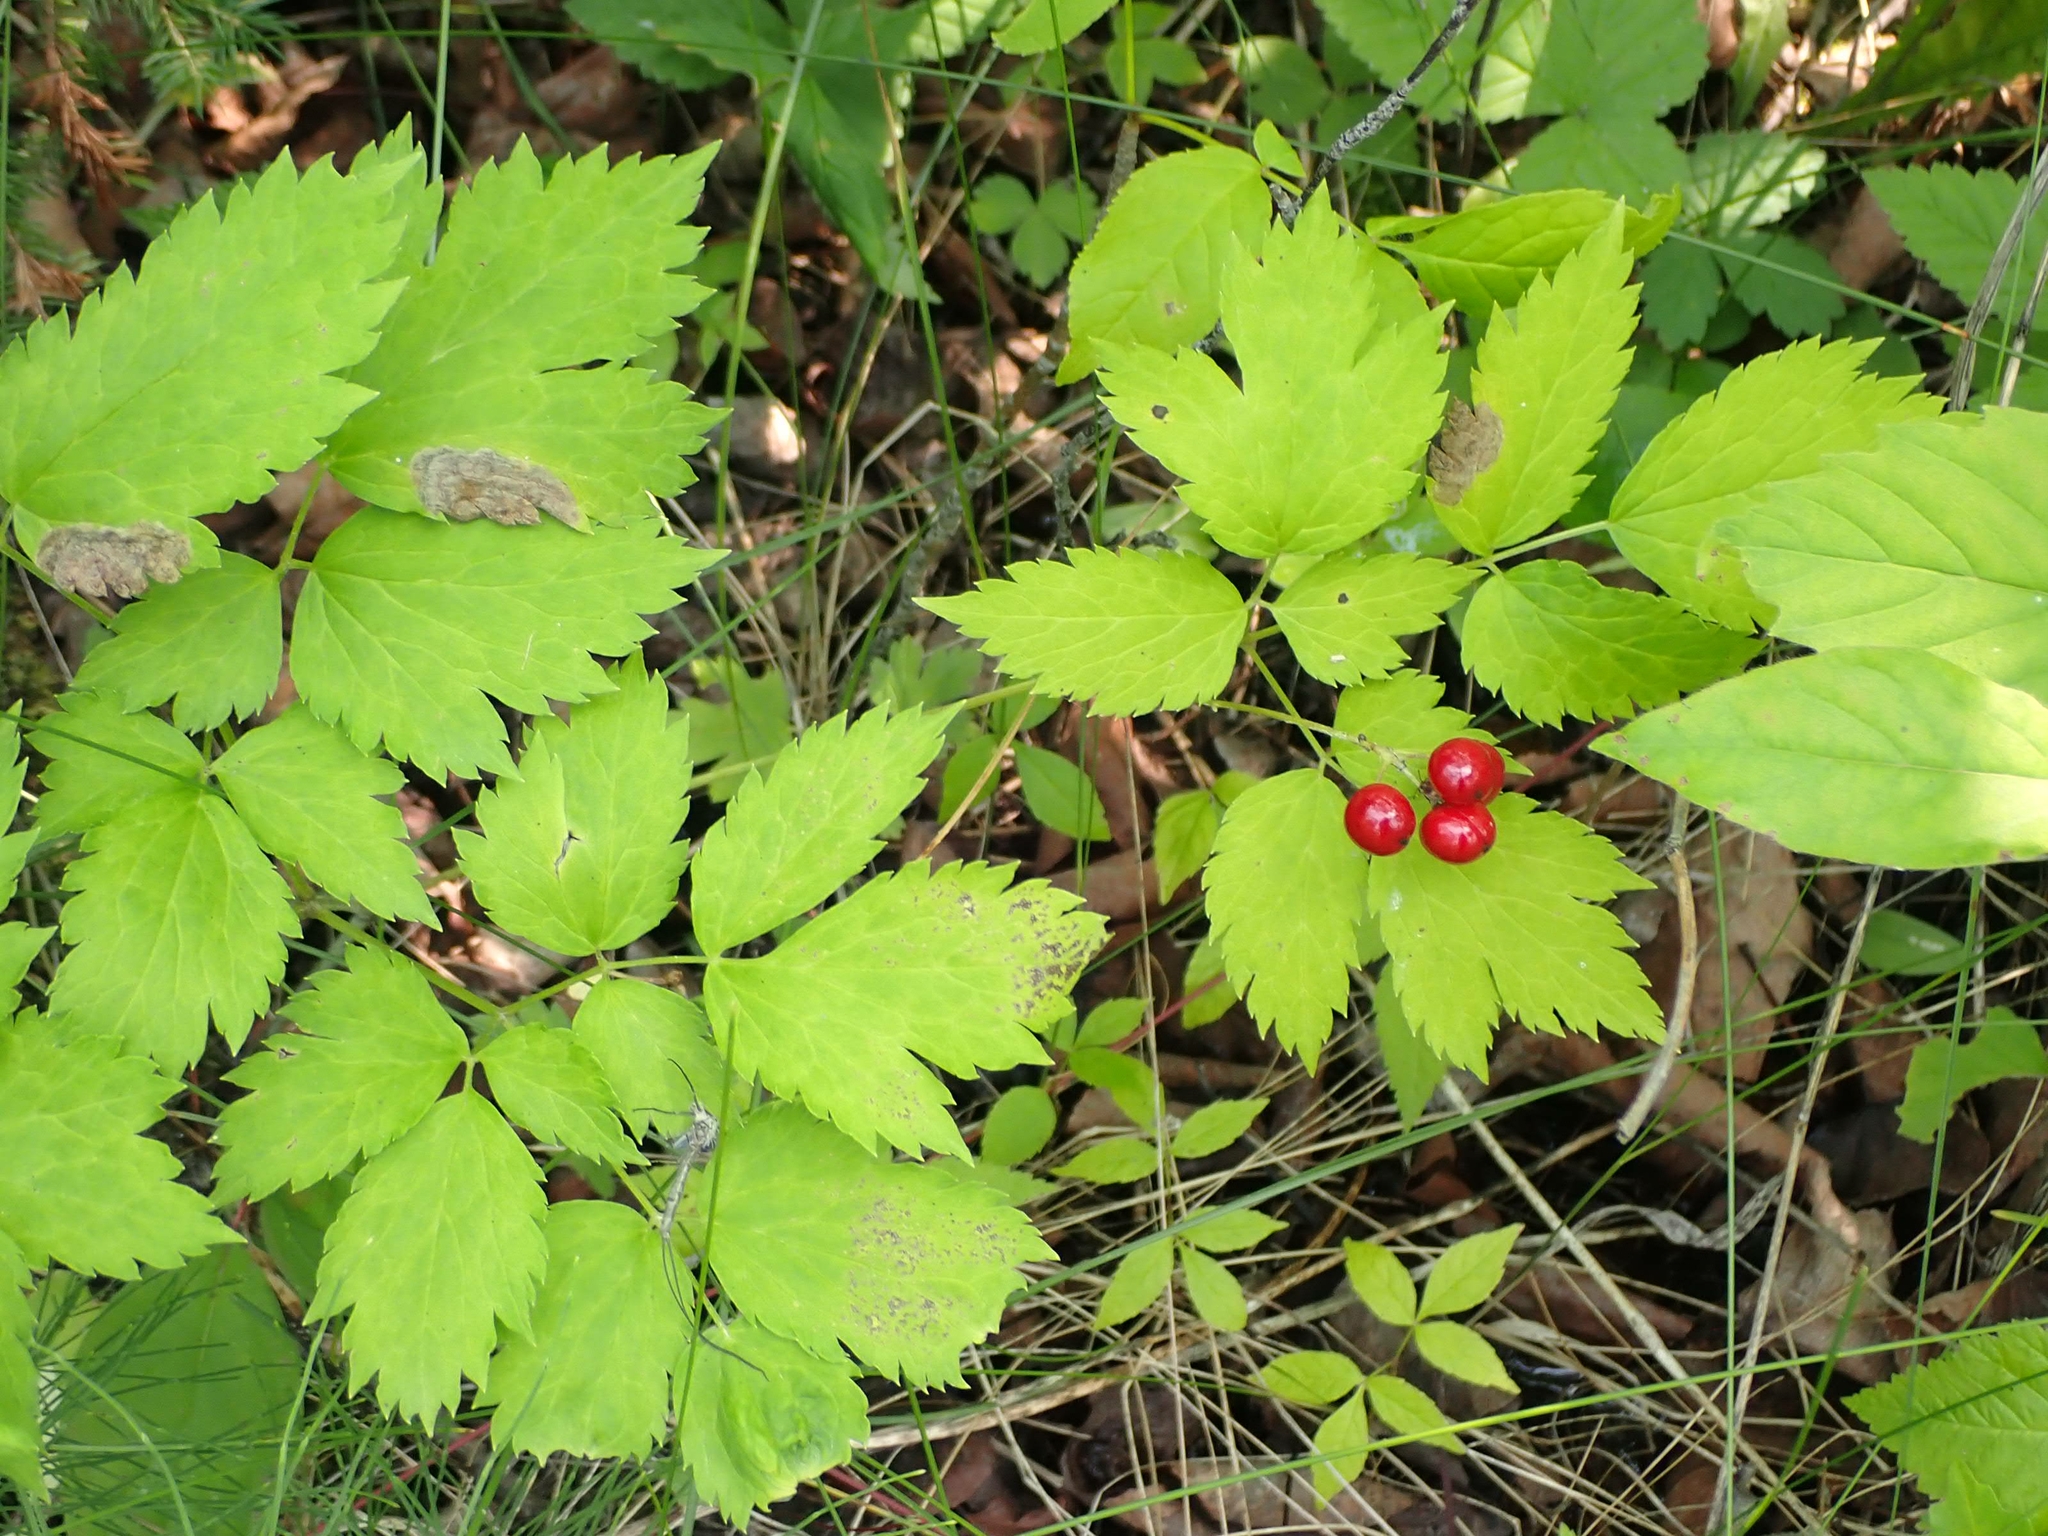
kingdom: Plantae
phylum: Tracheophyta
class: Magnoliopsida
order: Ranunculales
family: Ranunculaceae
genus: Actaea
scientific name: Actaea rubra
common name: Red baneberry
